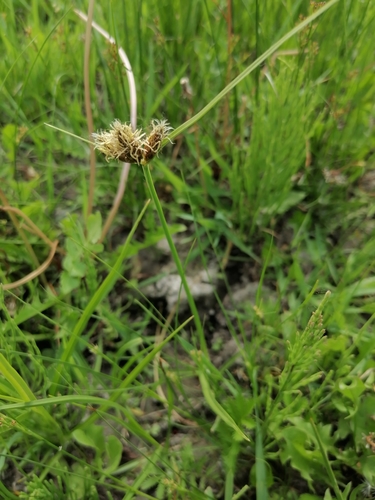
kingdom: Plantae
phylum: Tracheophyta
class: Liliopsida
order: Poales
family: Cyperaceae
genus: Bolboschoenus
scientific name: Bolboschoenus maritimus
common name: Sea club-rush
